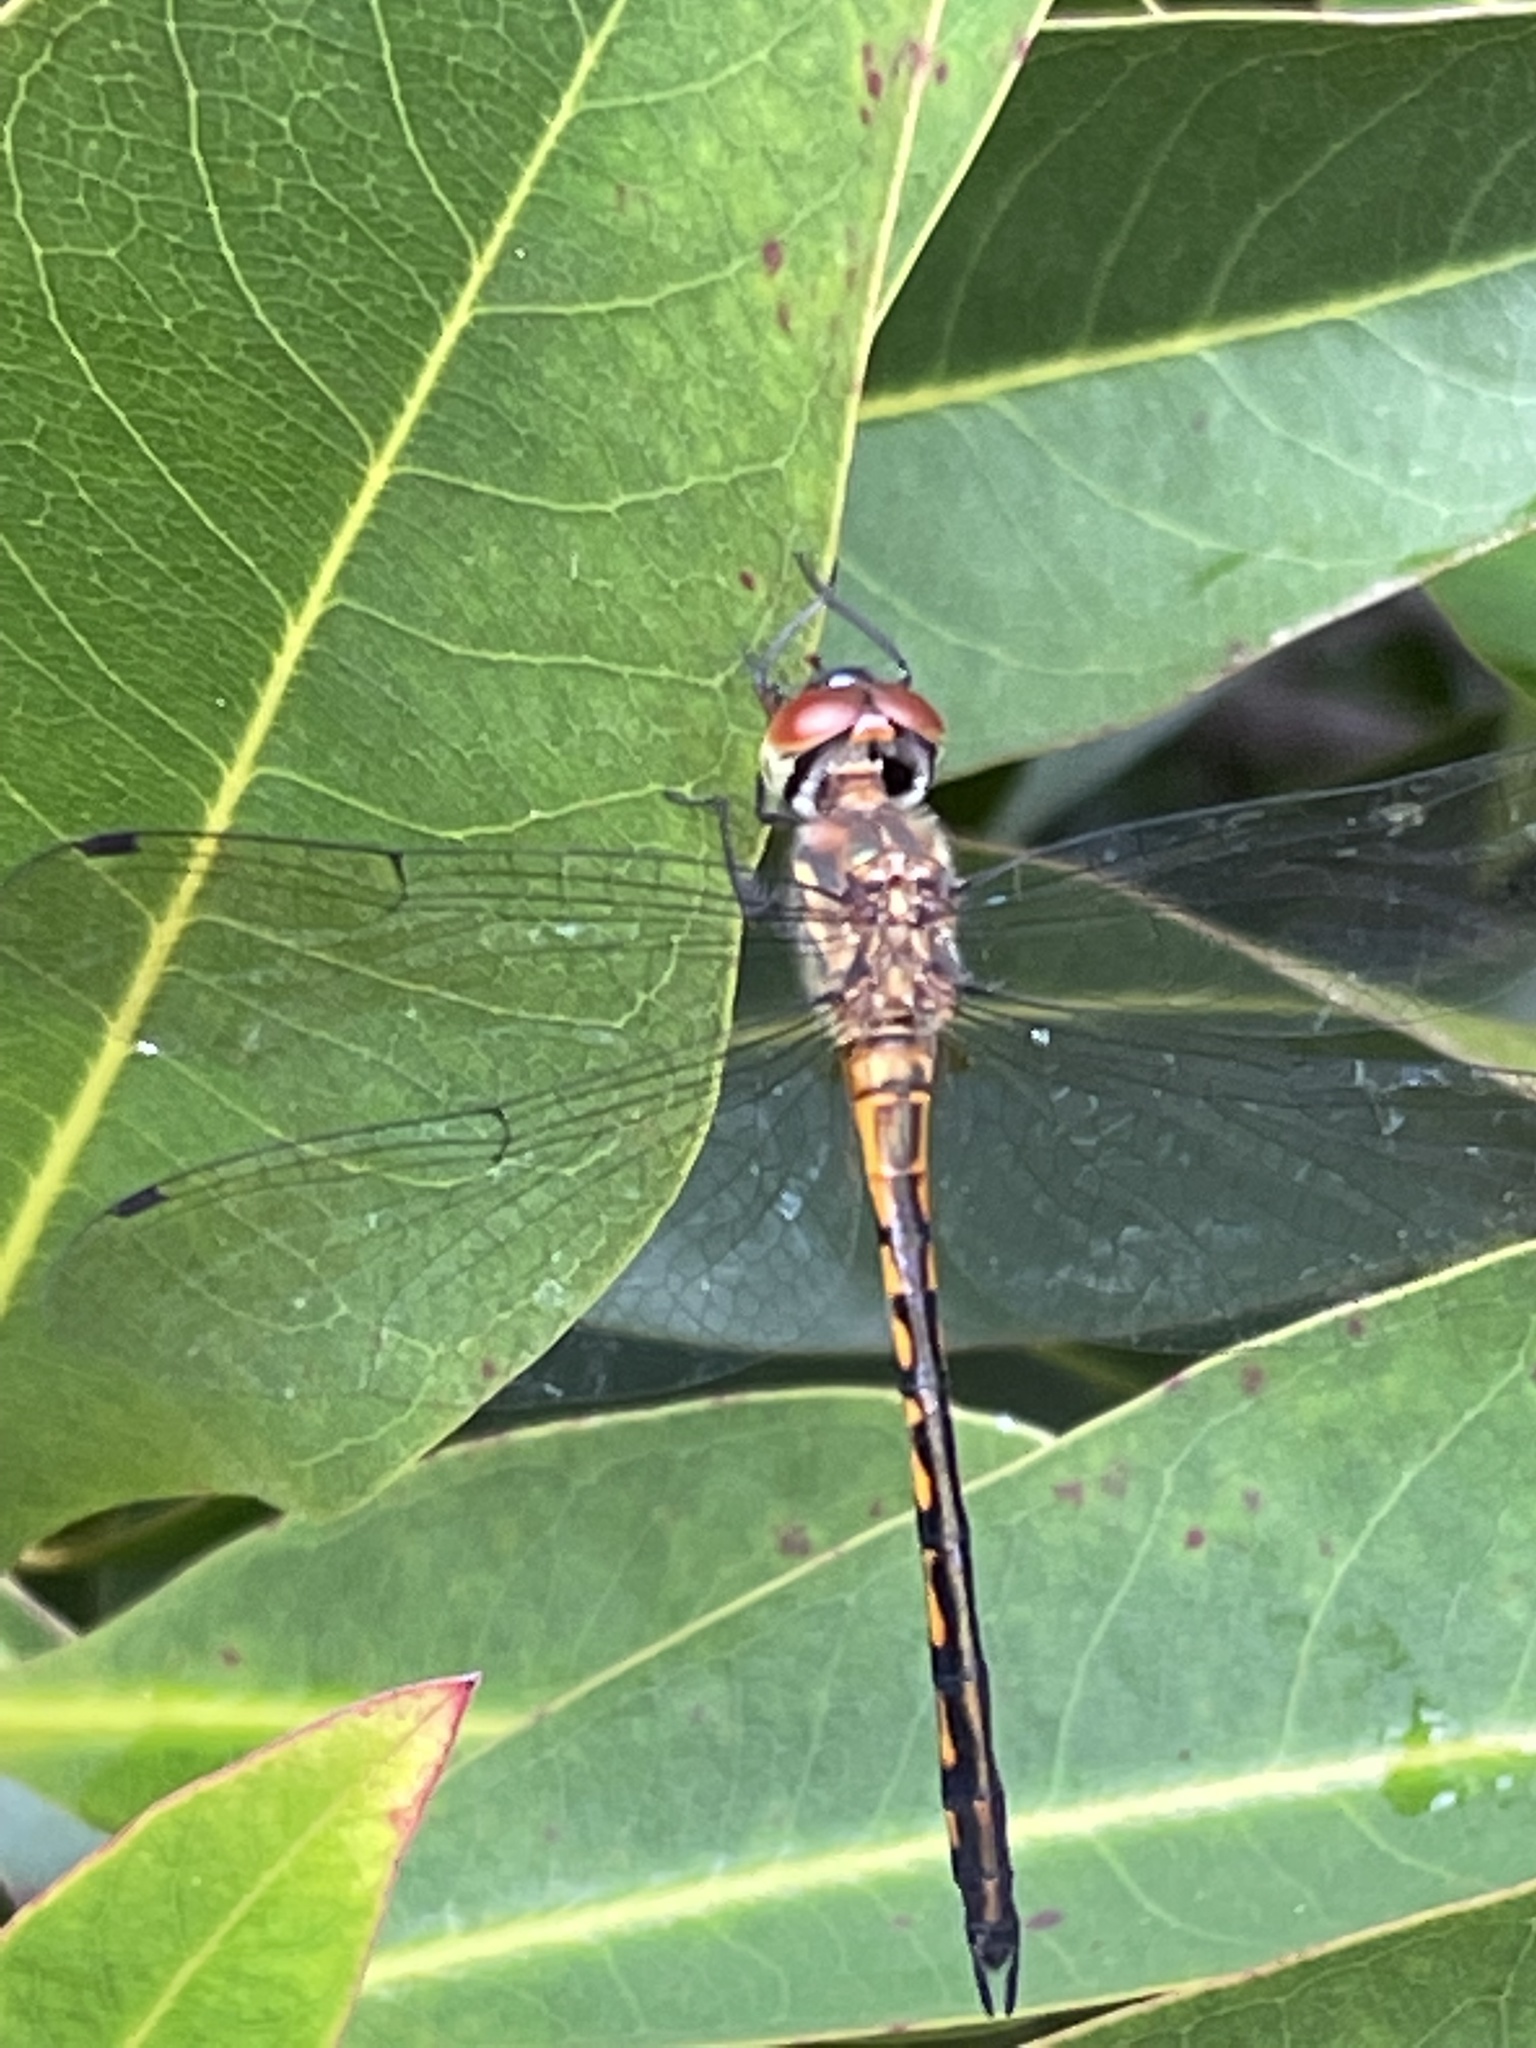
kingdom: Animalia
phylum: Arthropoda
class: Insecta
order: Odonata
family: Corduliidae
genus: Hemicordulia
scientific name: Hemicordulia continentalis
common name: Fat-bellied emerald
